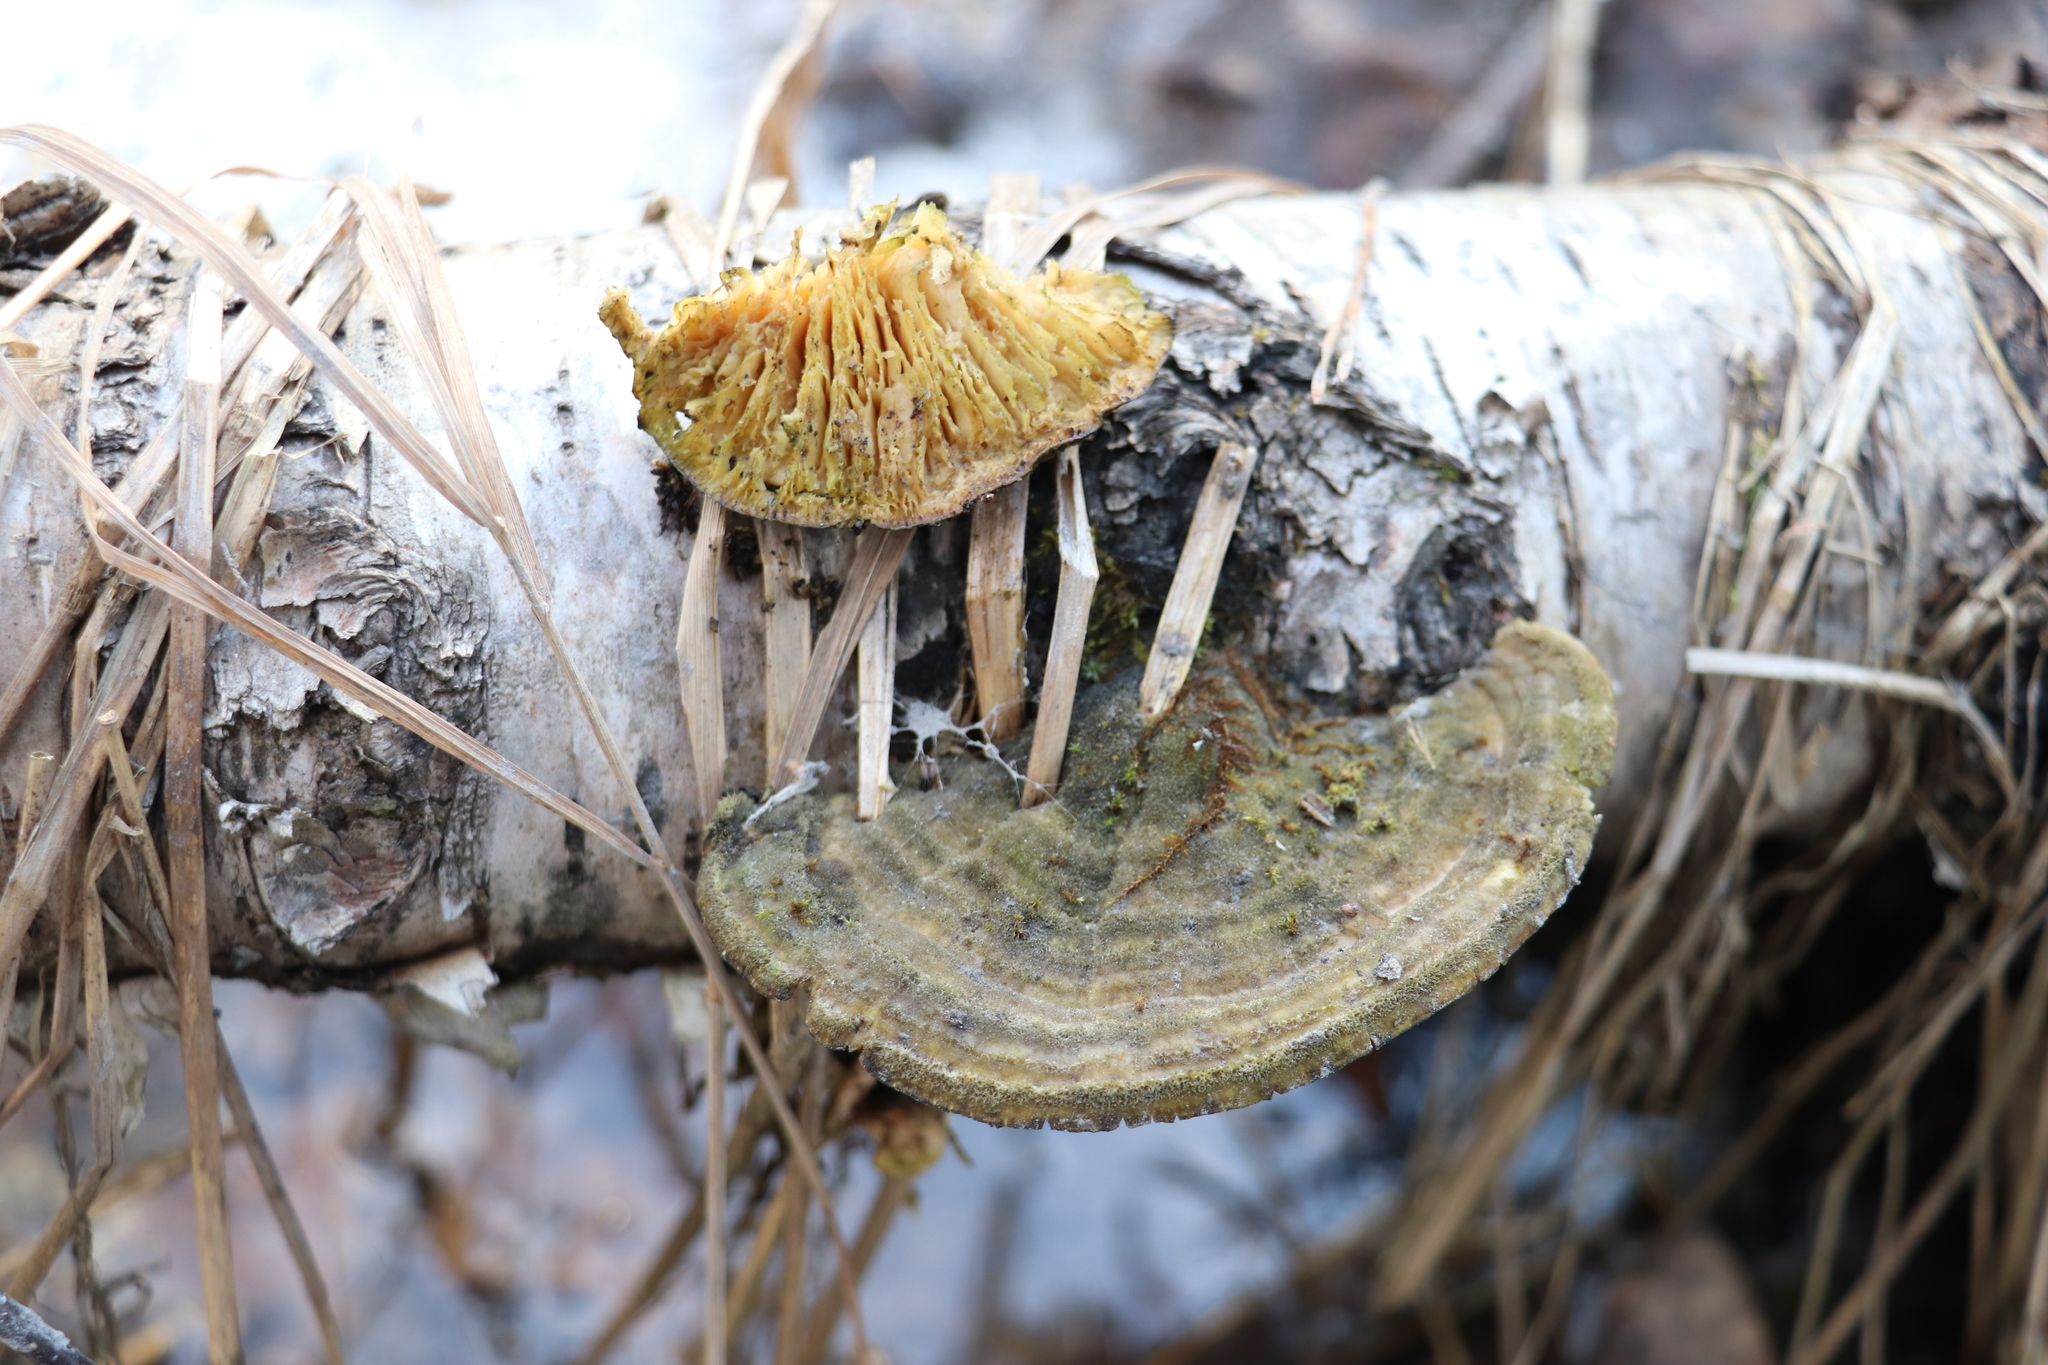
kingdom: Fungi
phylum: Basidiomycota
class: Agaricomycetes
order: Polyporales
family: Polyporaceae
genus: Lenzites
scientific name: Lenzites betulinus
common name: Birch mazegill
